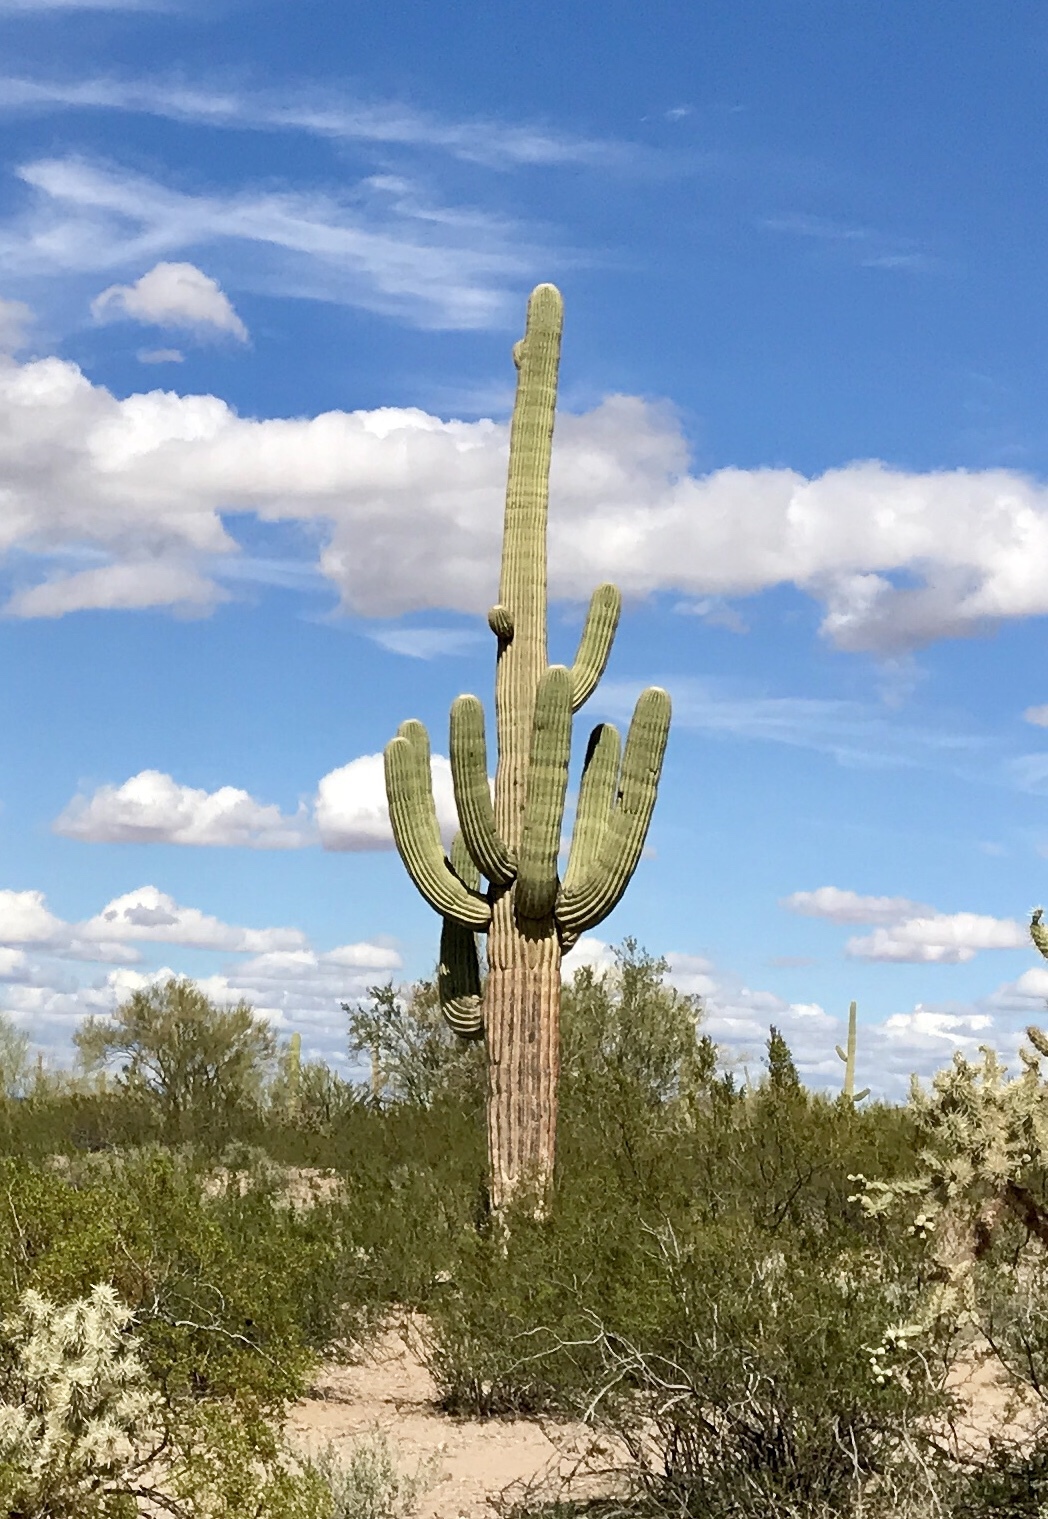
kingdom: Plantae
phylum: Tracheophyta
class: Magnoliopsida
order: Caryophyllales
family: Cactaceae
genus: Carnegiea
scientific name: Carnegiea gigantea
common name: Saguaro
